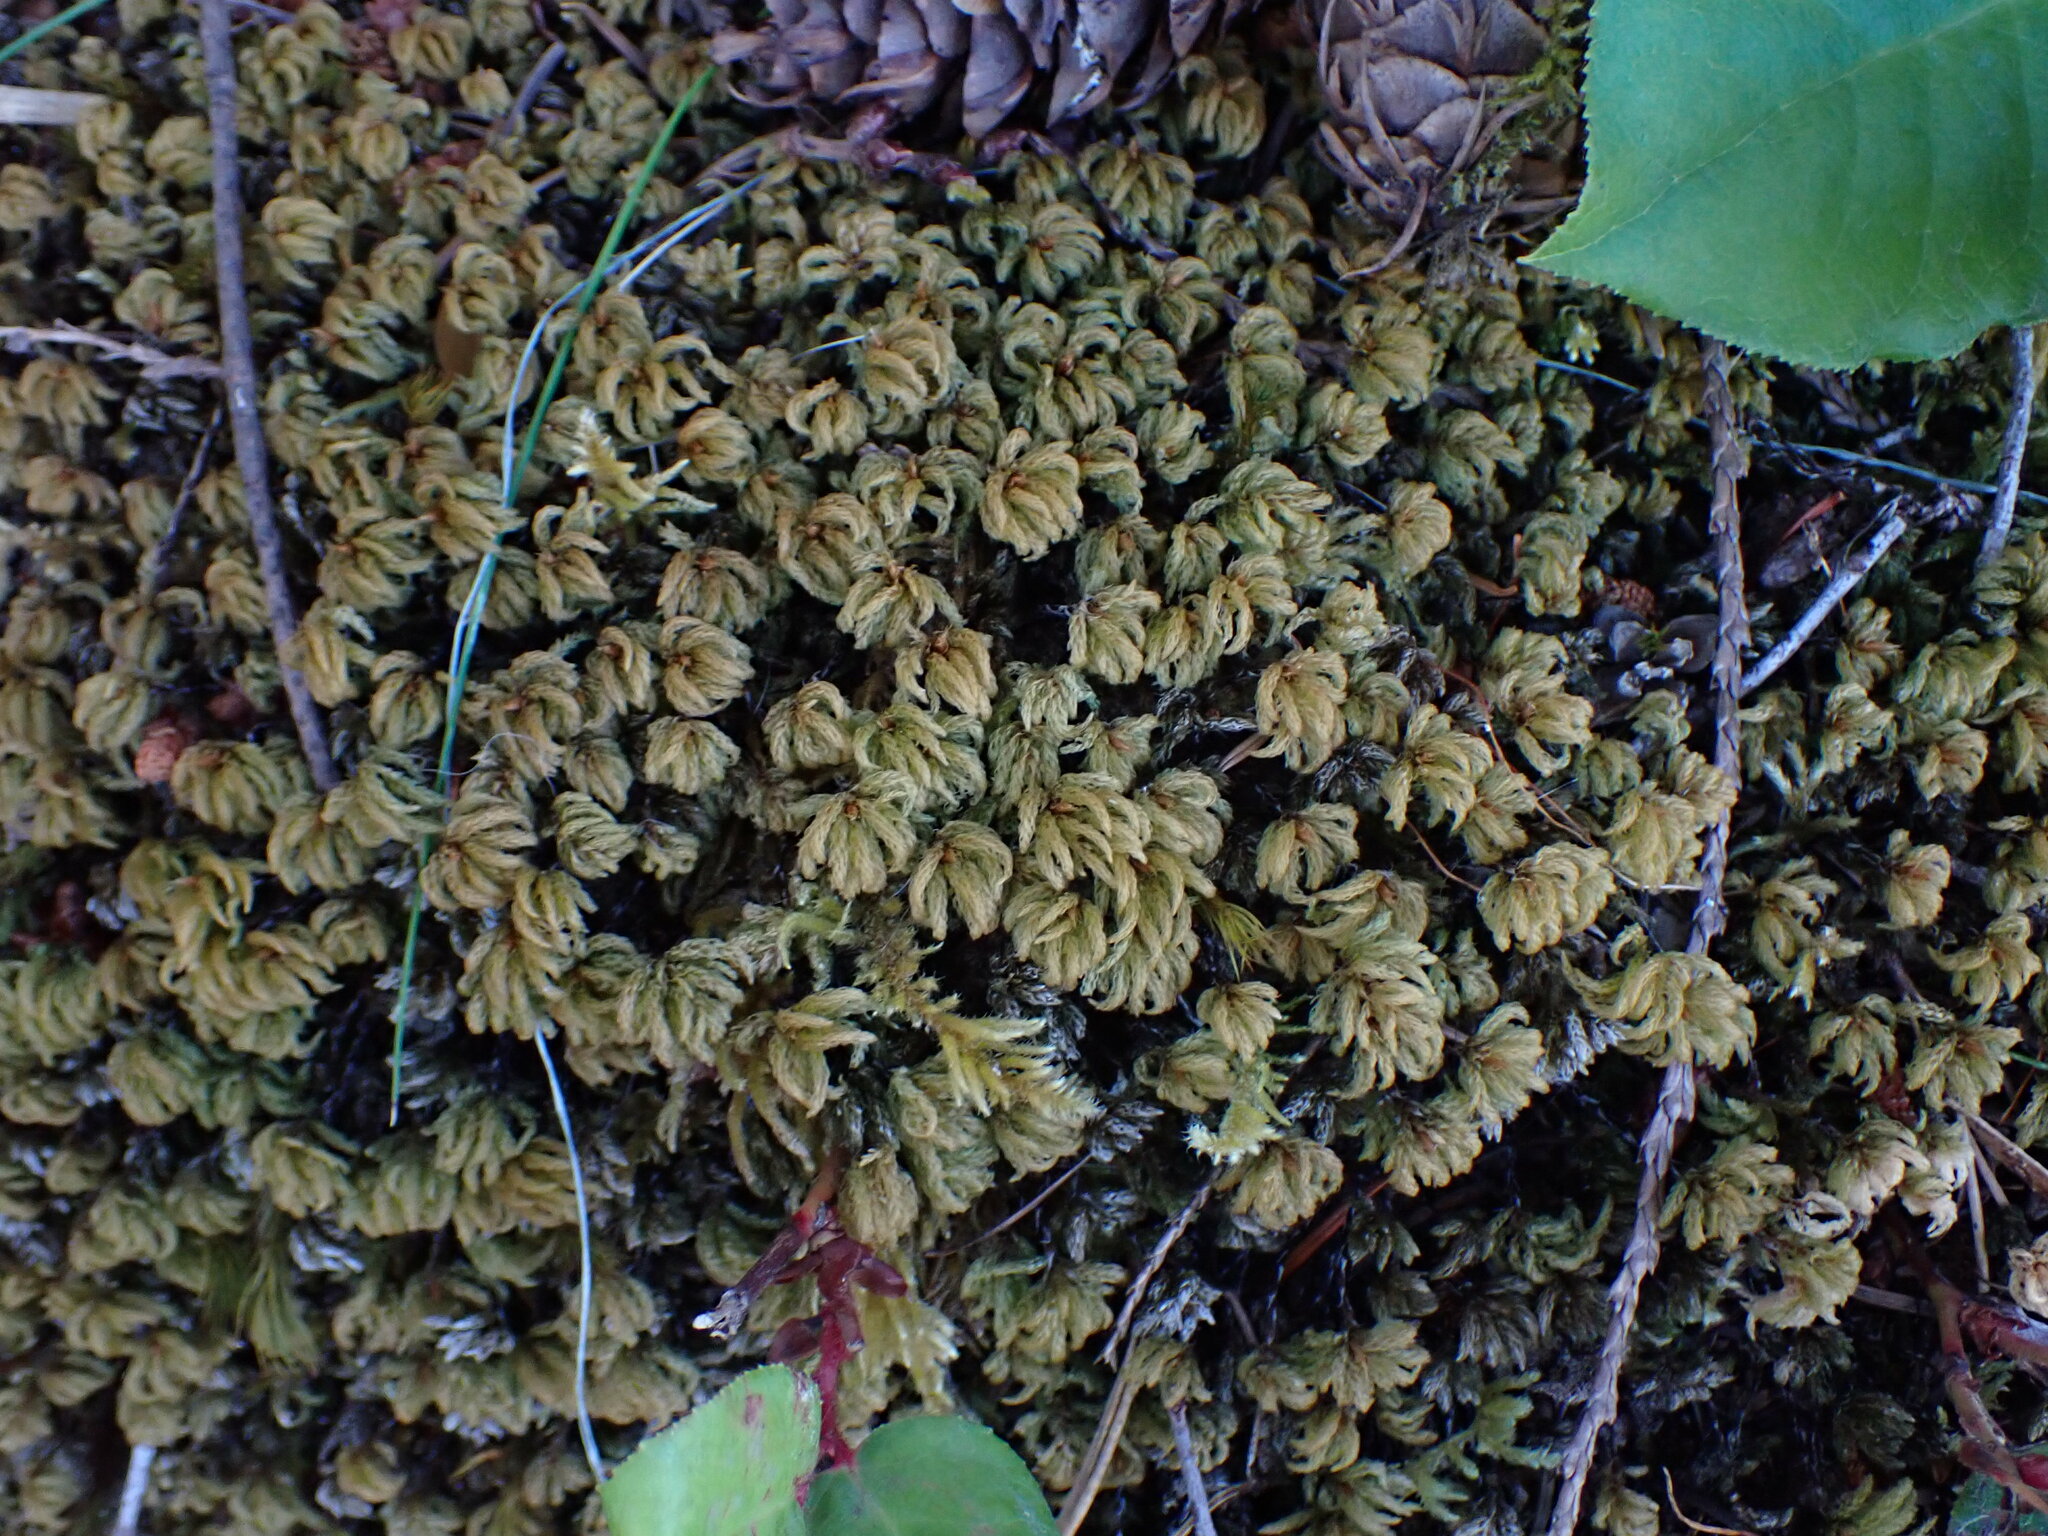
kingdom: Plantae
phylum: Bryophyta
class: Bryopsida
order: Bryales
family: Mniaceae
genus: Leucolepis
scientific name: Leucolepis acanthoneura
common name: Leucolepis umbrella moss
